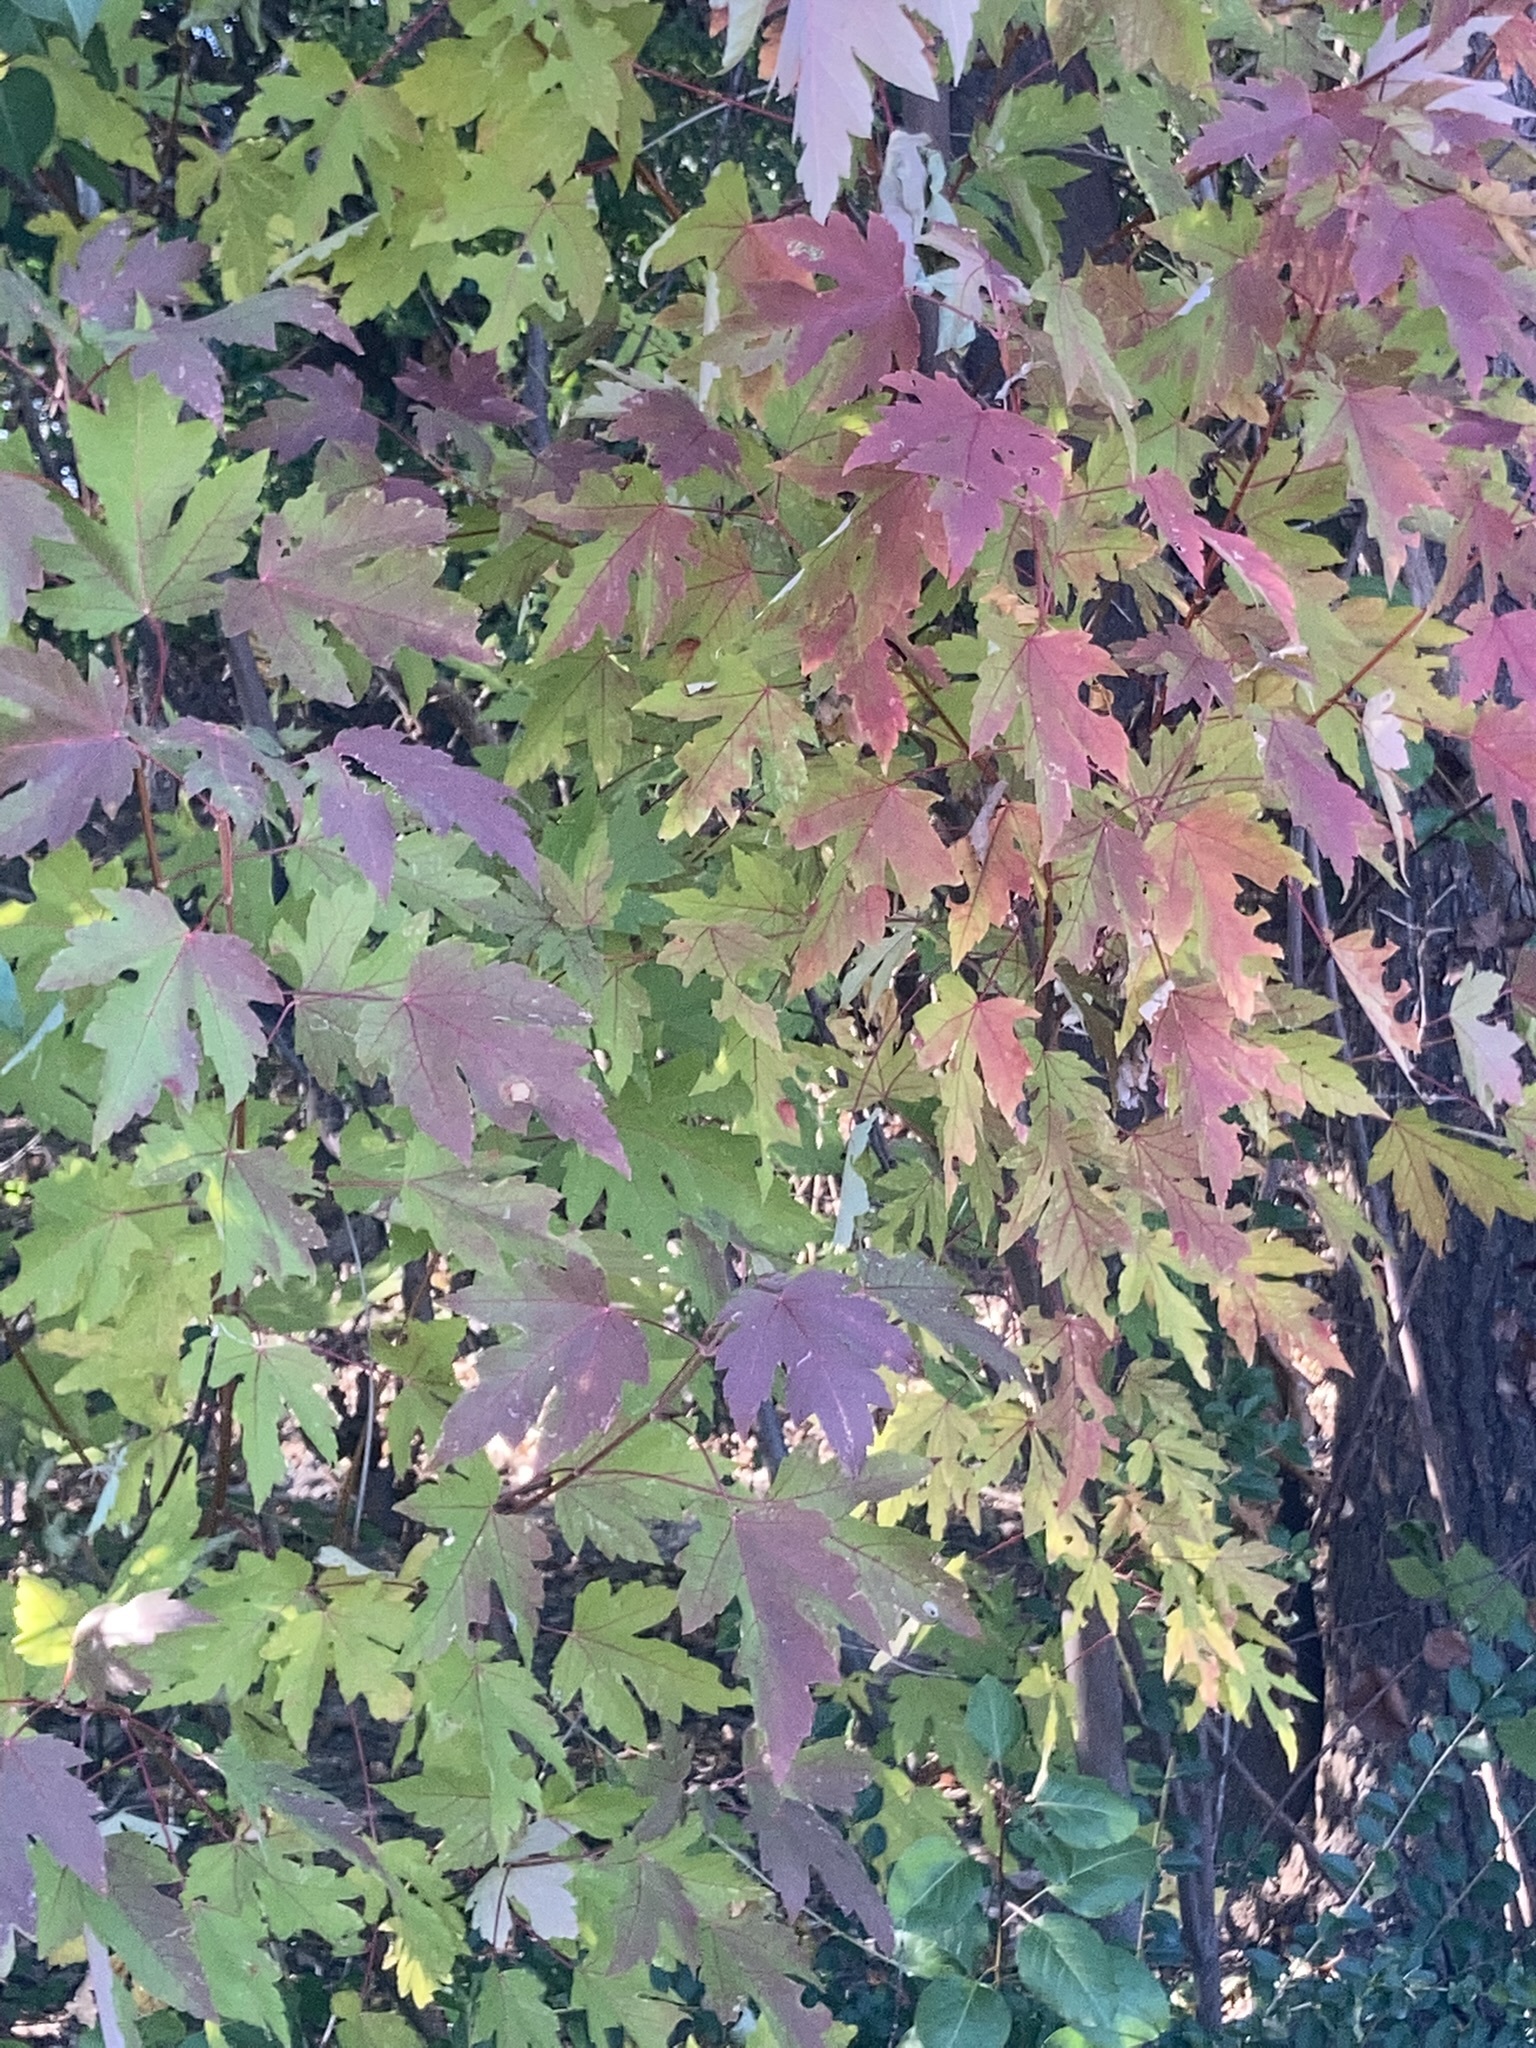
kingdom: Plantae
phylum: Tracheophyta
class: Magnoliopsida
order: Sapindales
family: Sapindaceae
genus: Acer
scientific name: Acer saccharinum
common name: Silver maple
